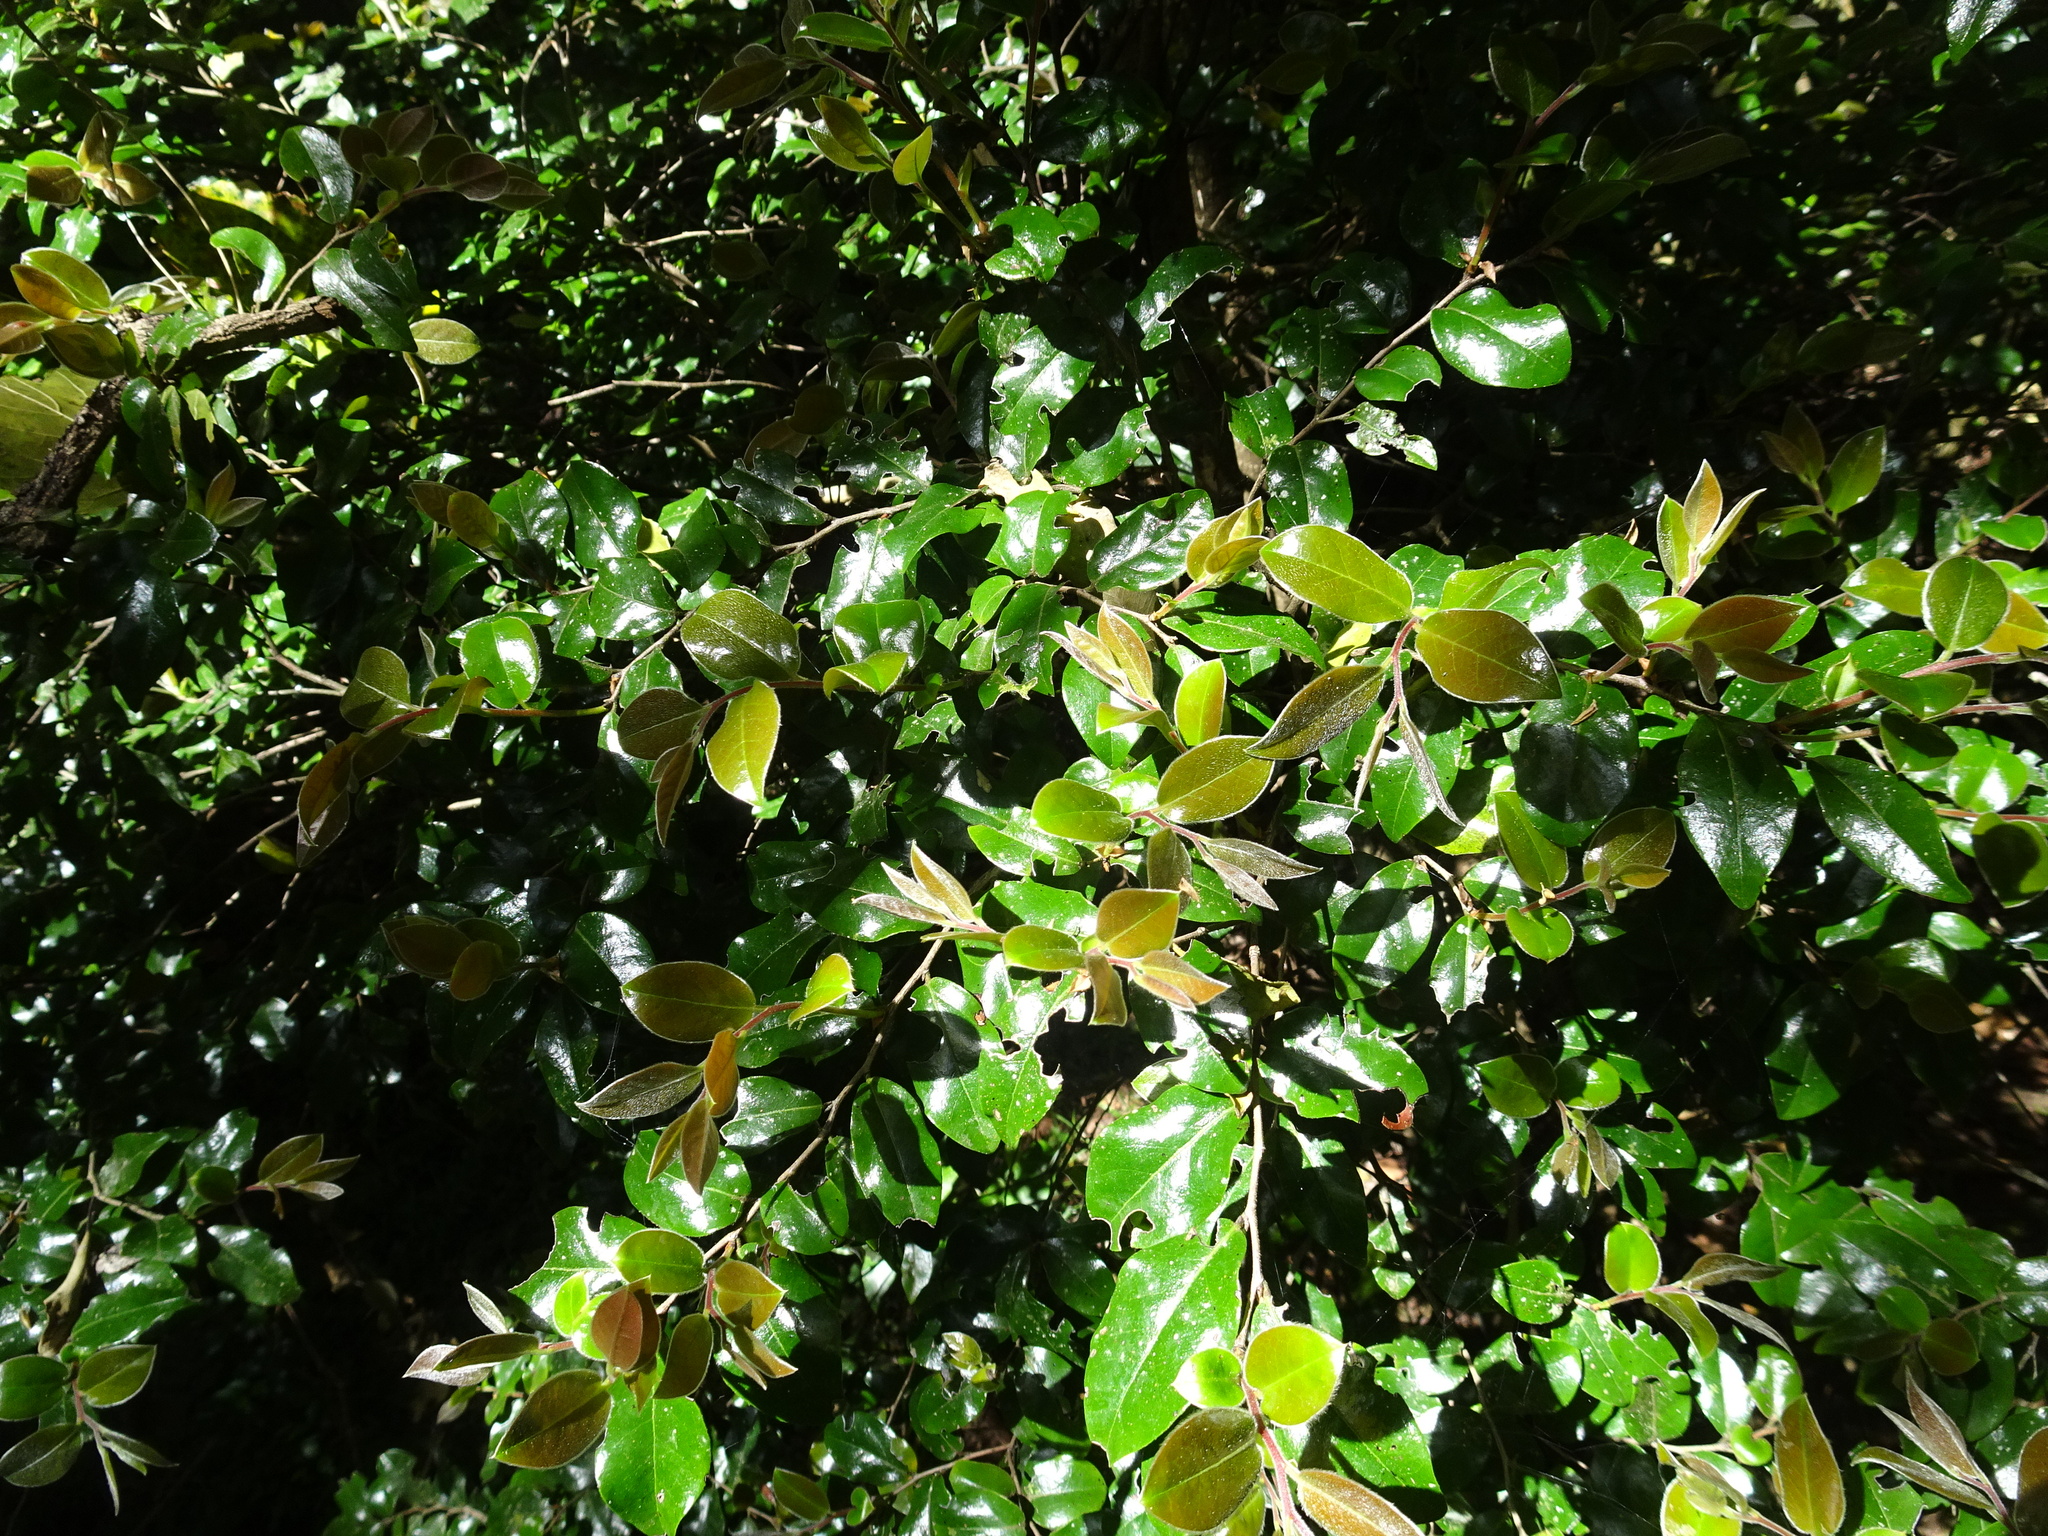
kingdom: Plantae
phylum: Tracheophyta
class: Magnoliopsida
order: Ericales
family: Ebenaceae
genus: Diospyros
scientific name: Diospyros whyteana
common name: Bladder-nut
